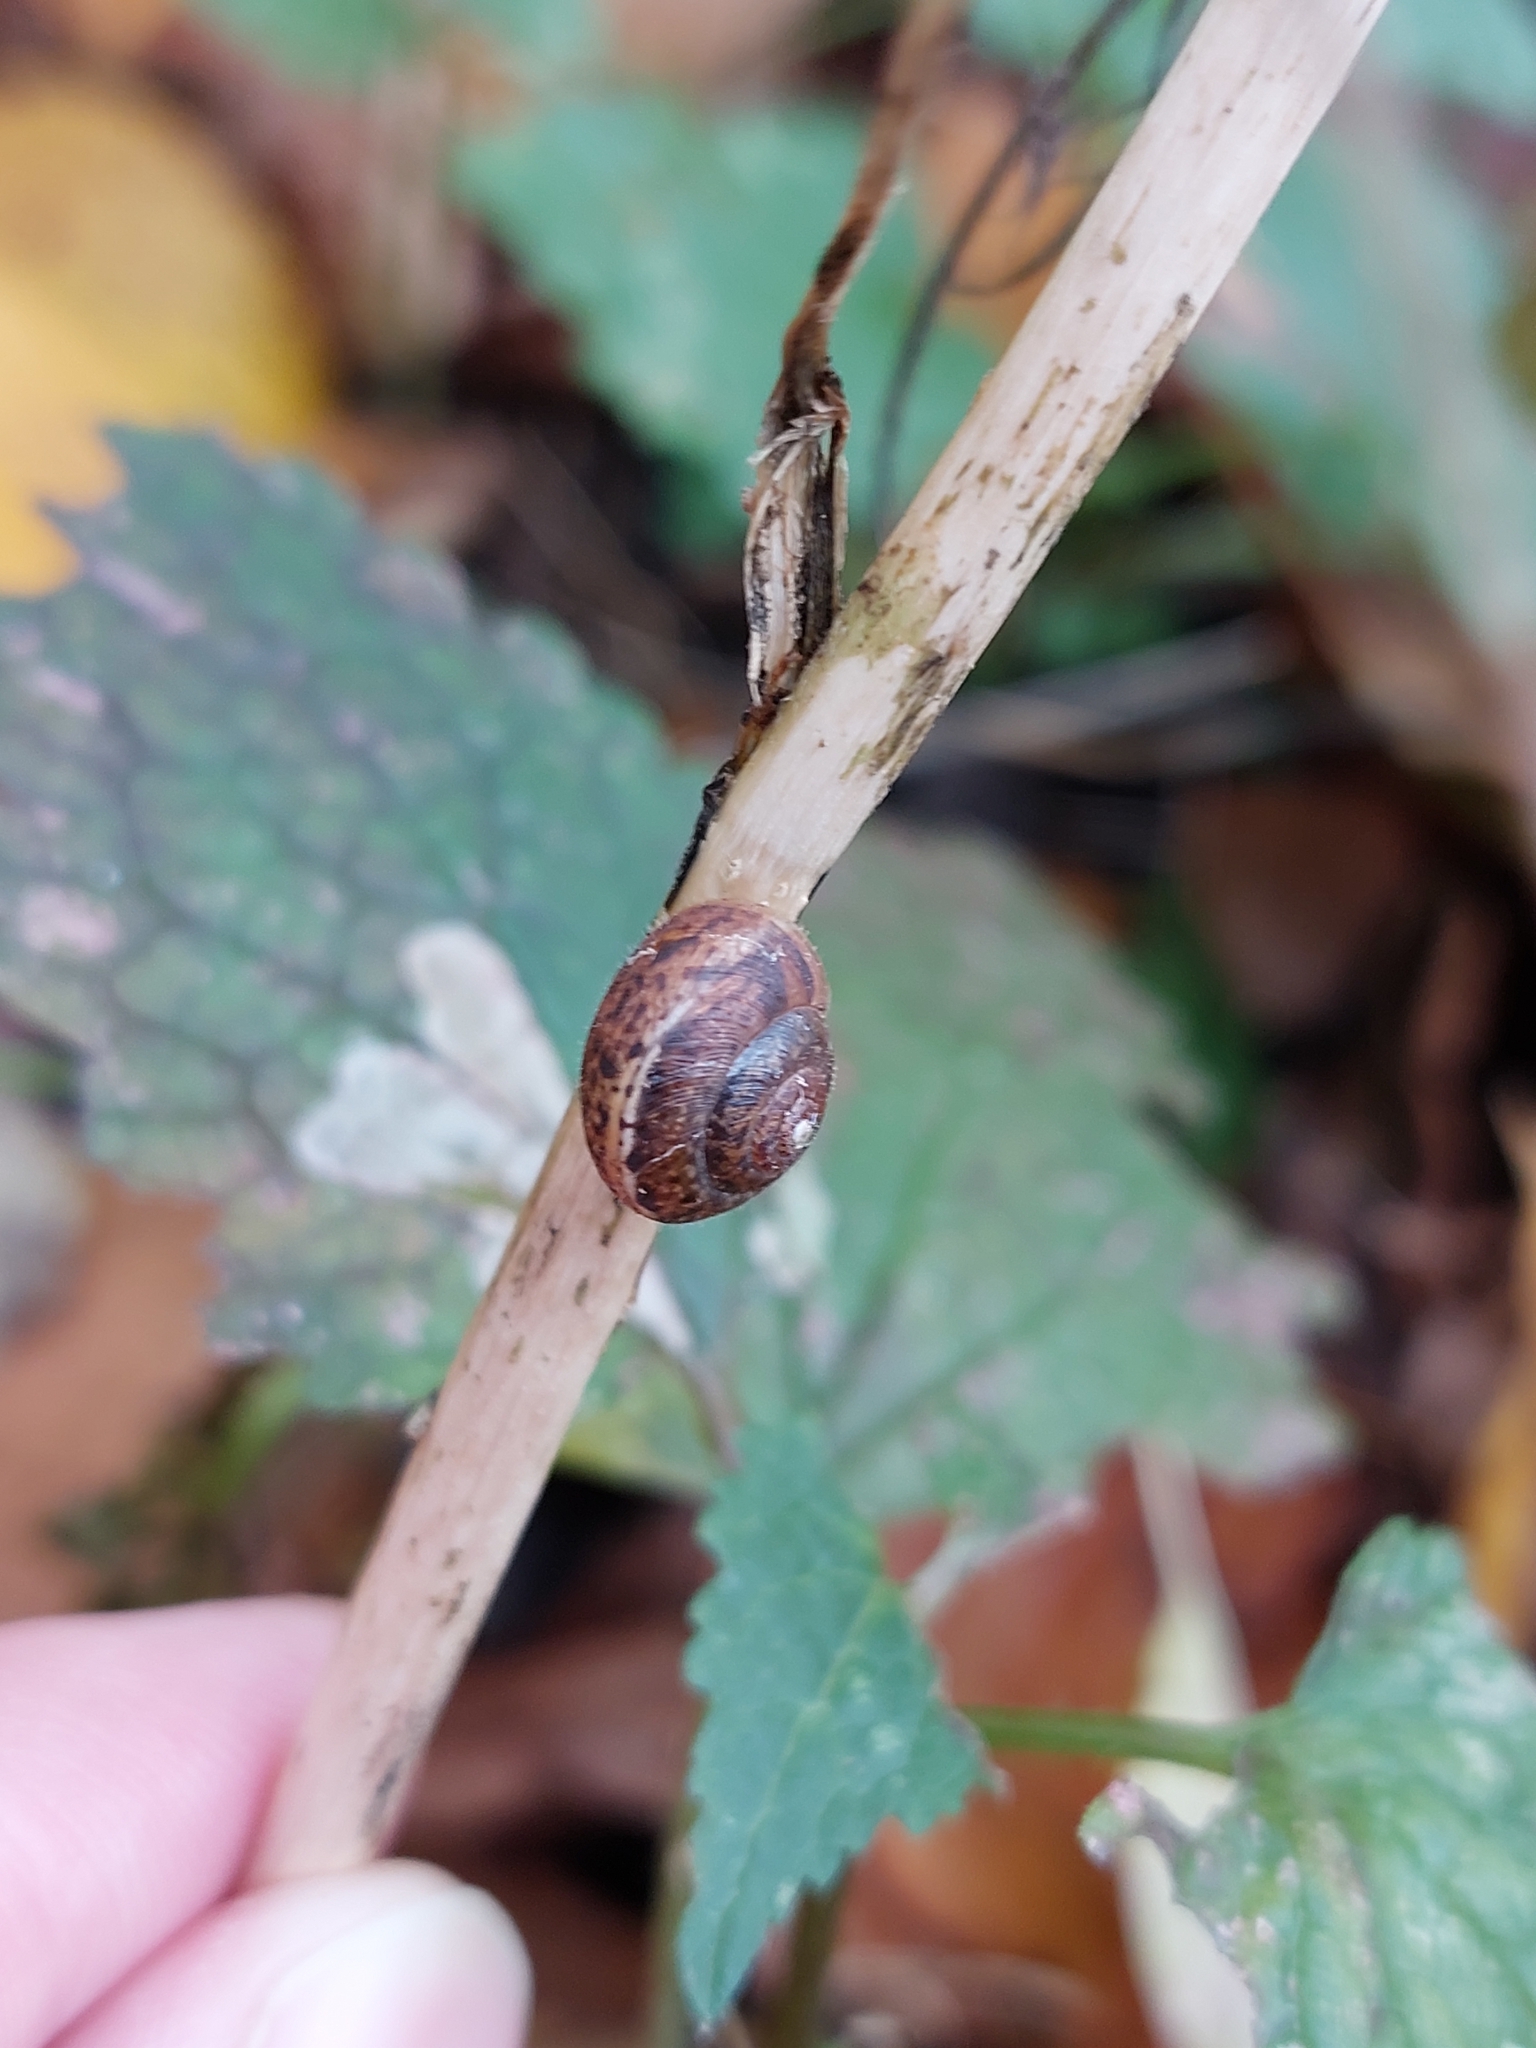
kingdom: Animalia
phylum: Mollusca
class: Gastropoda
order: Stylommatophora
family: Hygromiidae
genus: Euomphalia
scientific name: Euomphalia strigella
